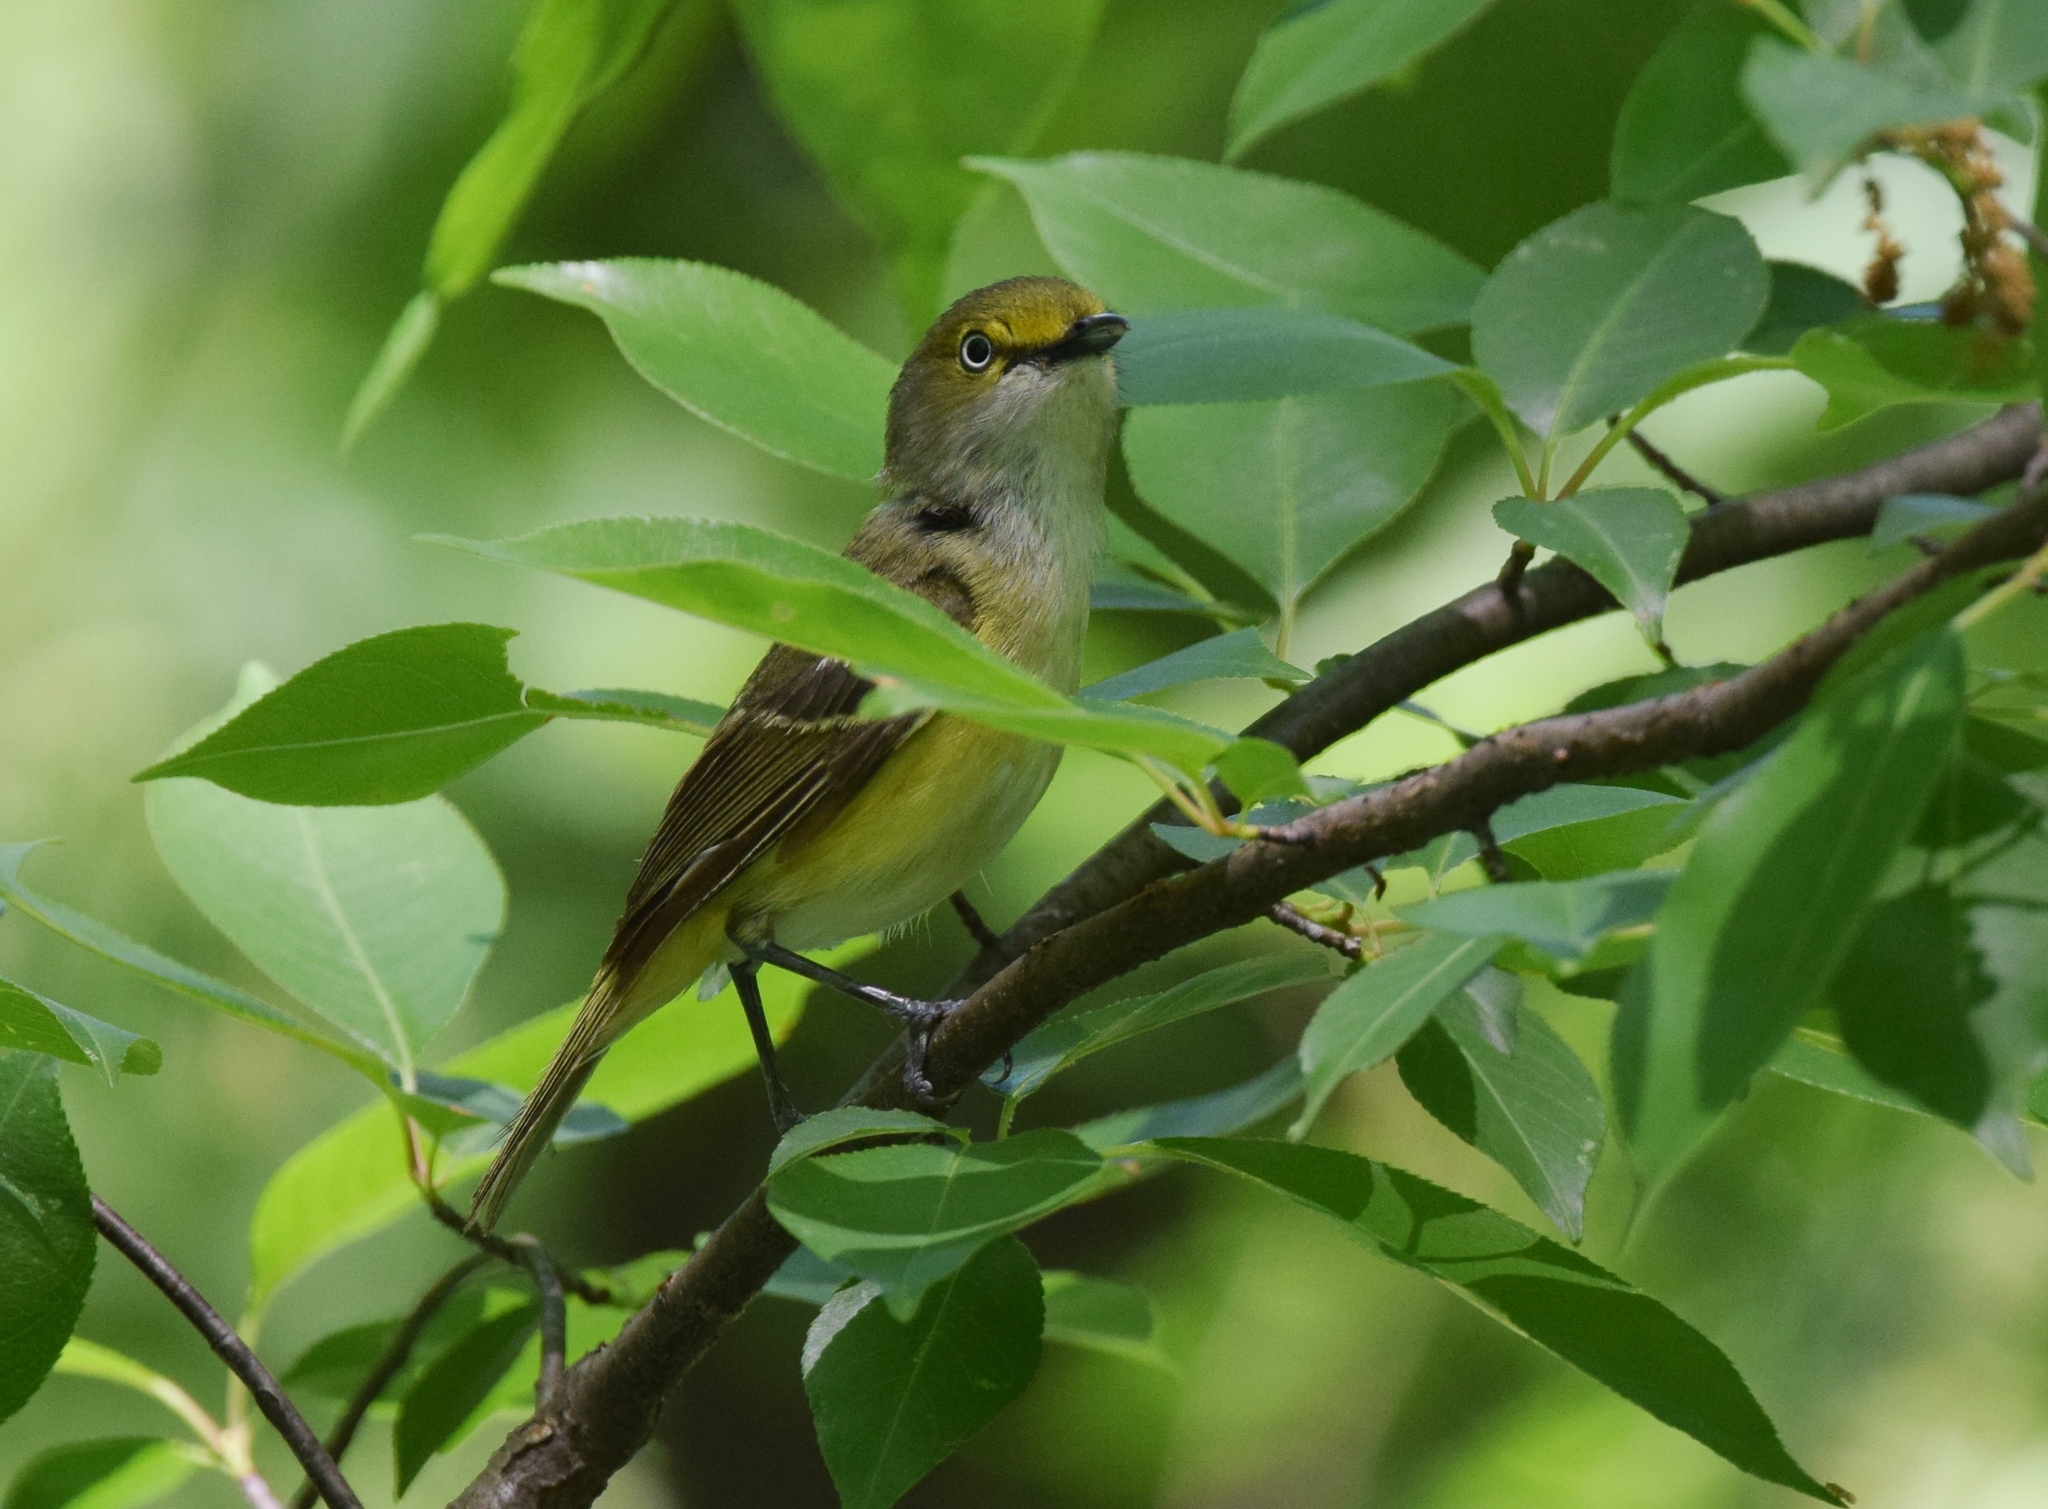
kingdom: Animalia
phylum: Chordata
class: Aves
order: Passeriformes
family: Vireonidae
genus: Vireo
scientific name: Vireo griseus
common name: White-eyed vireo
